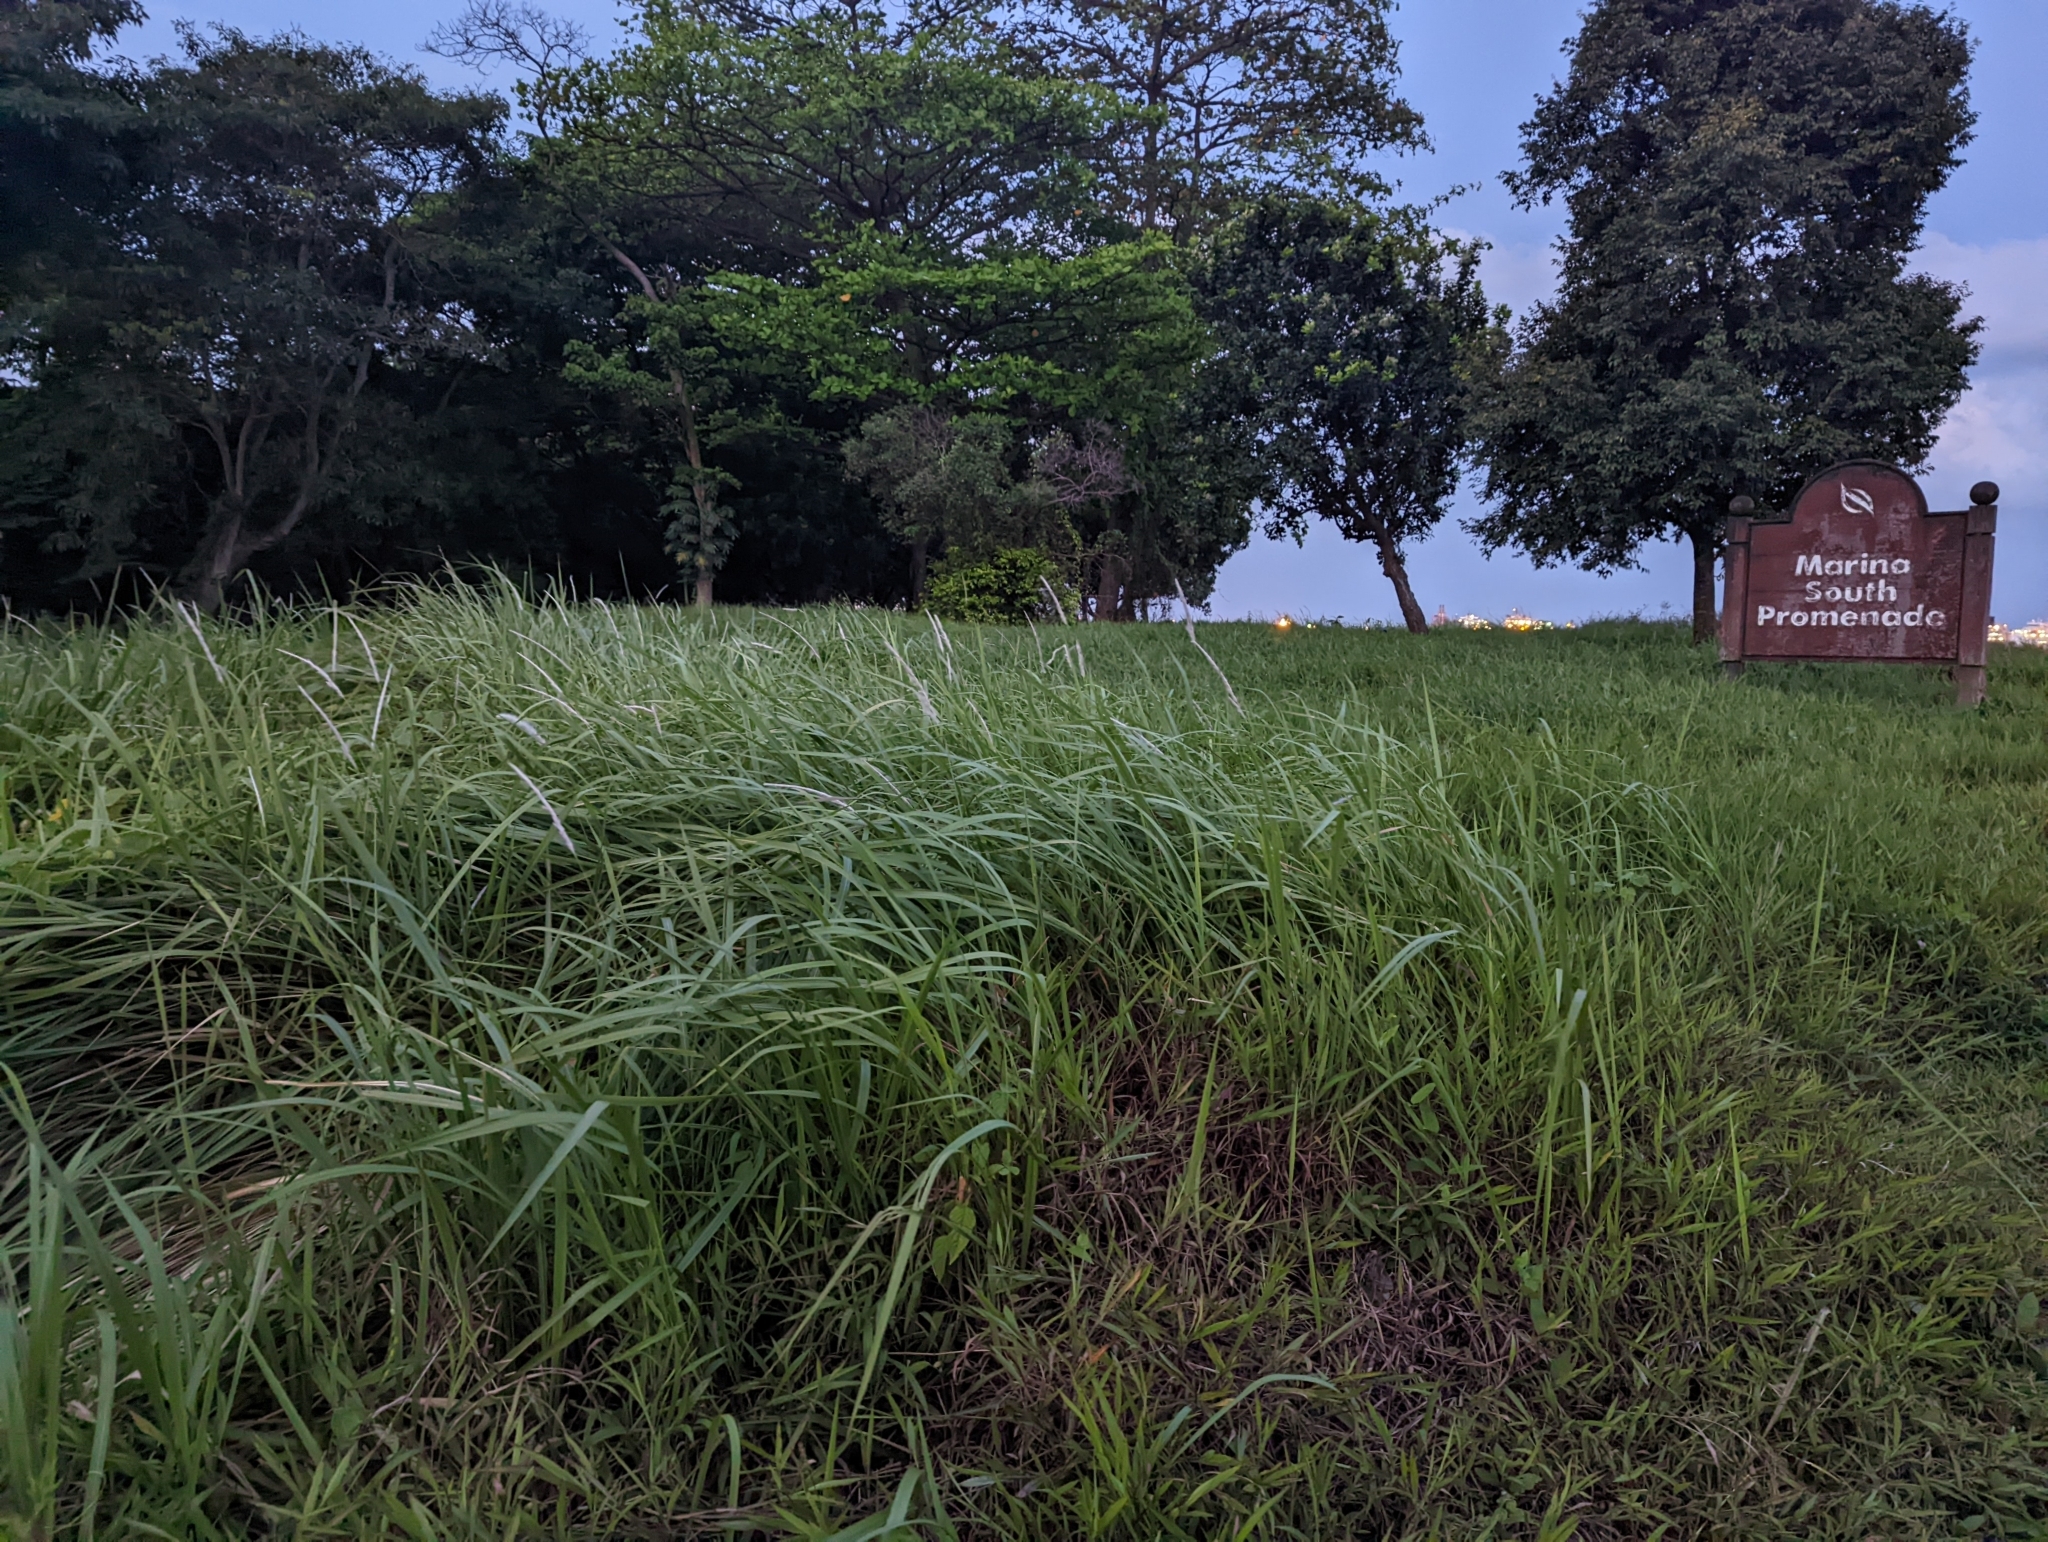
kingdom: Plantae
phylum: Tracheophyta
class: Liliopsida
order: Poales
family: Poaceae
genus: Imperata
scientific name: Imperata cylindrica
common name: Cogongrass
